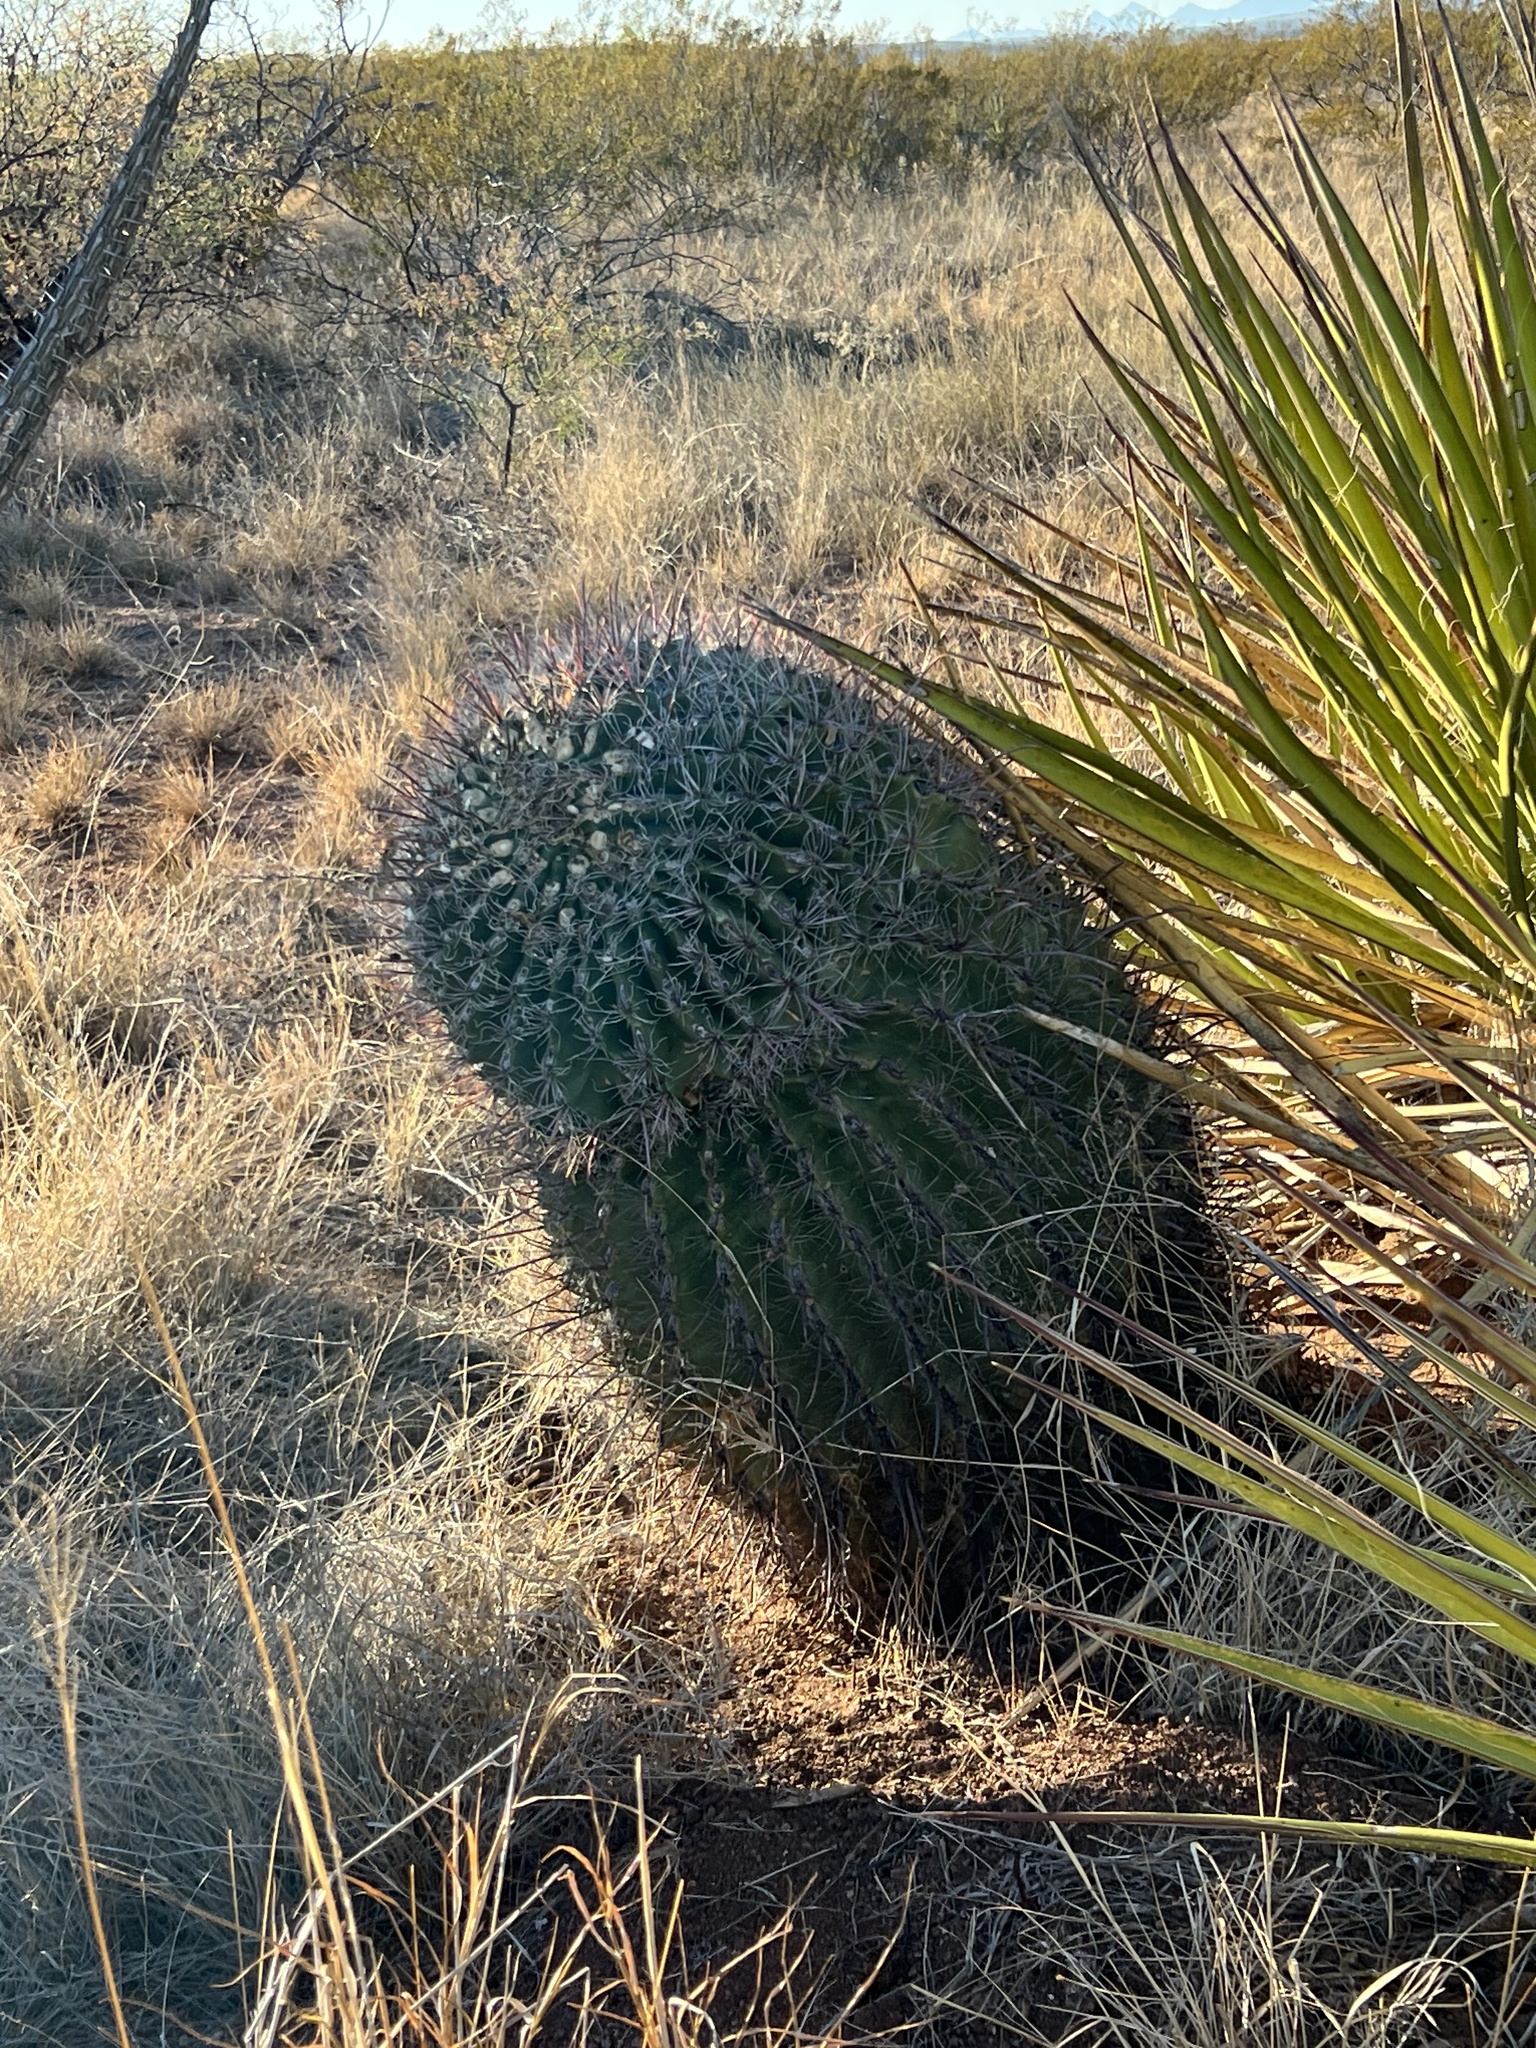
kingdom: Plantae
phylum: Tracheophyta
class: Magnoliopsida
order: Caryophyllales
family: Cactaceae
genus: Ferocactus
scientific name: Ferocactus wislizeni
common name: Candy barrel cactus
